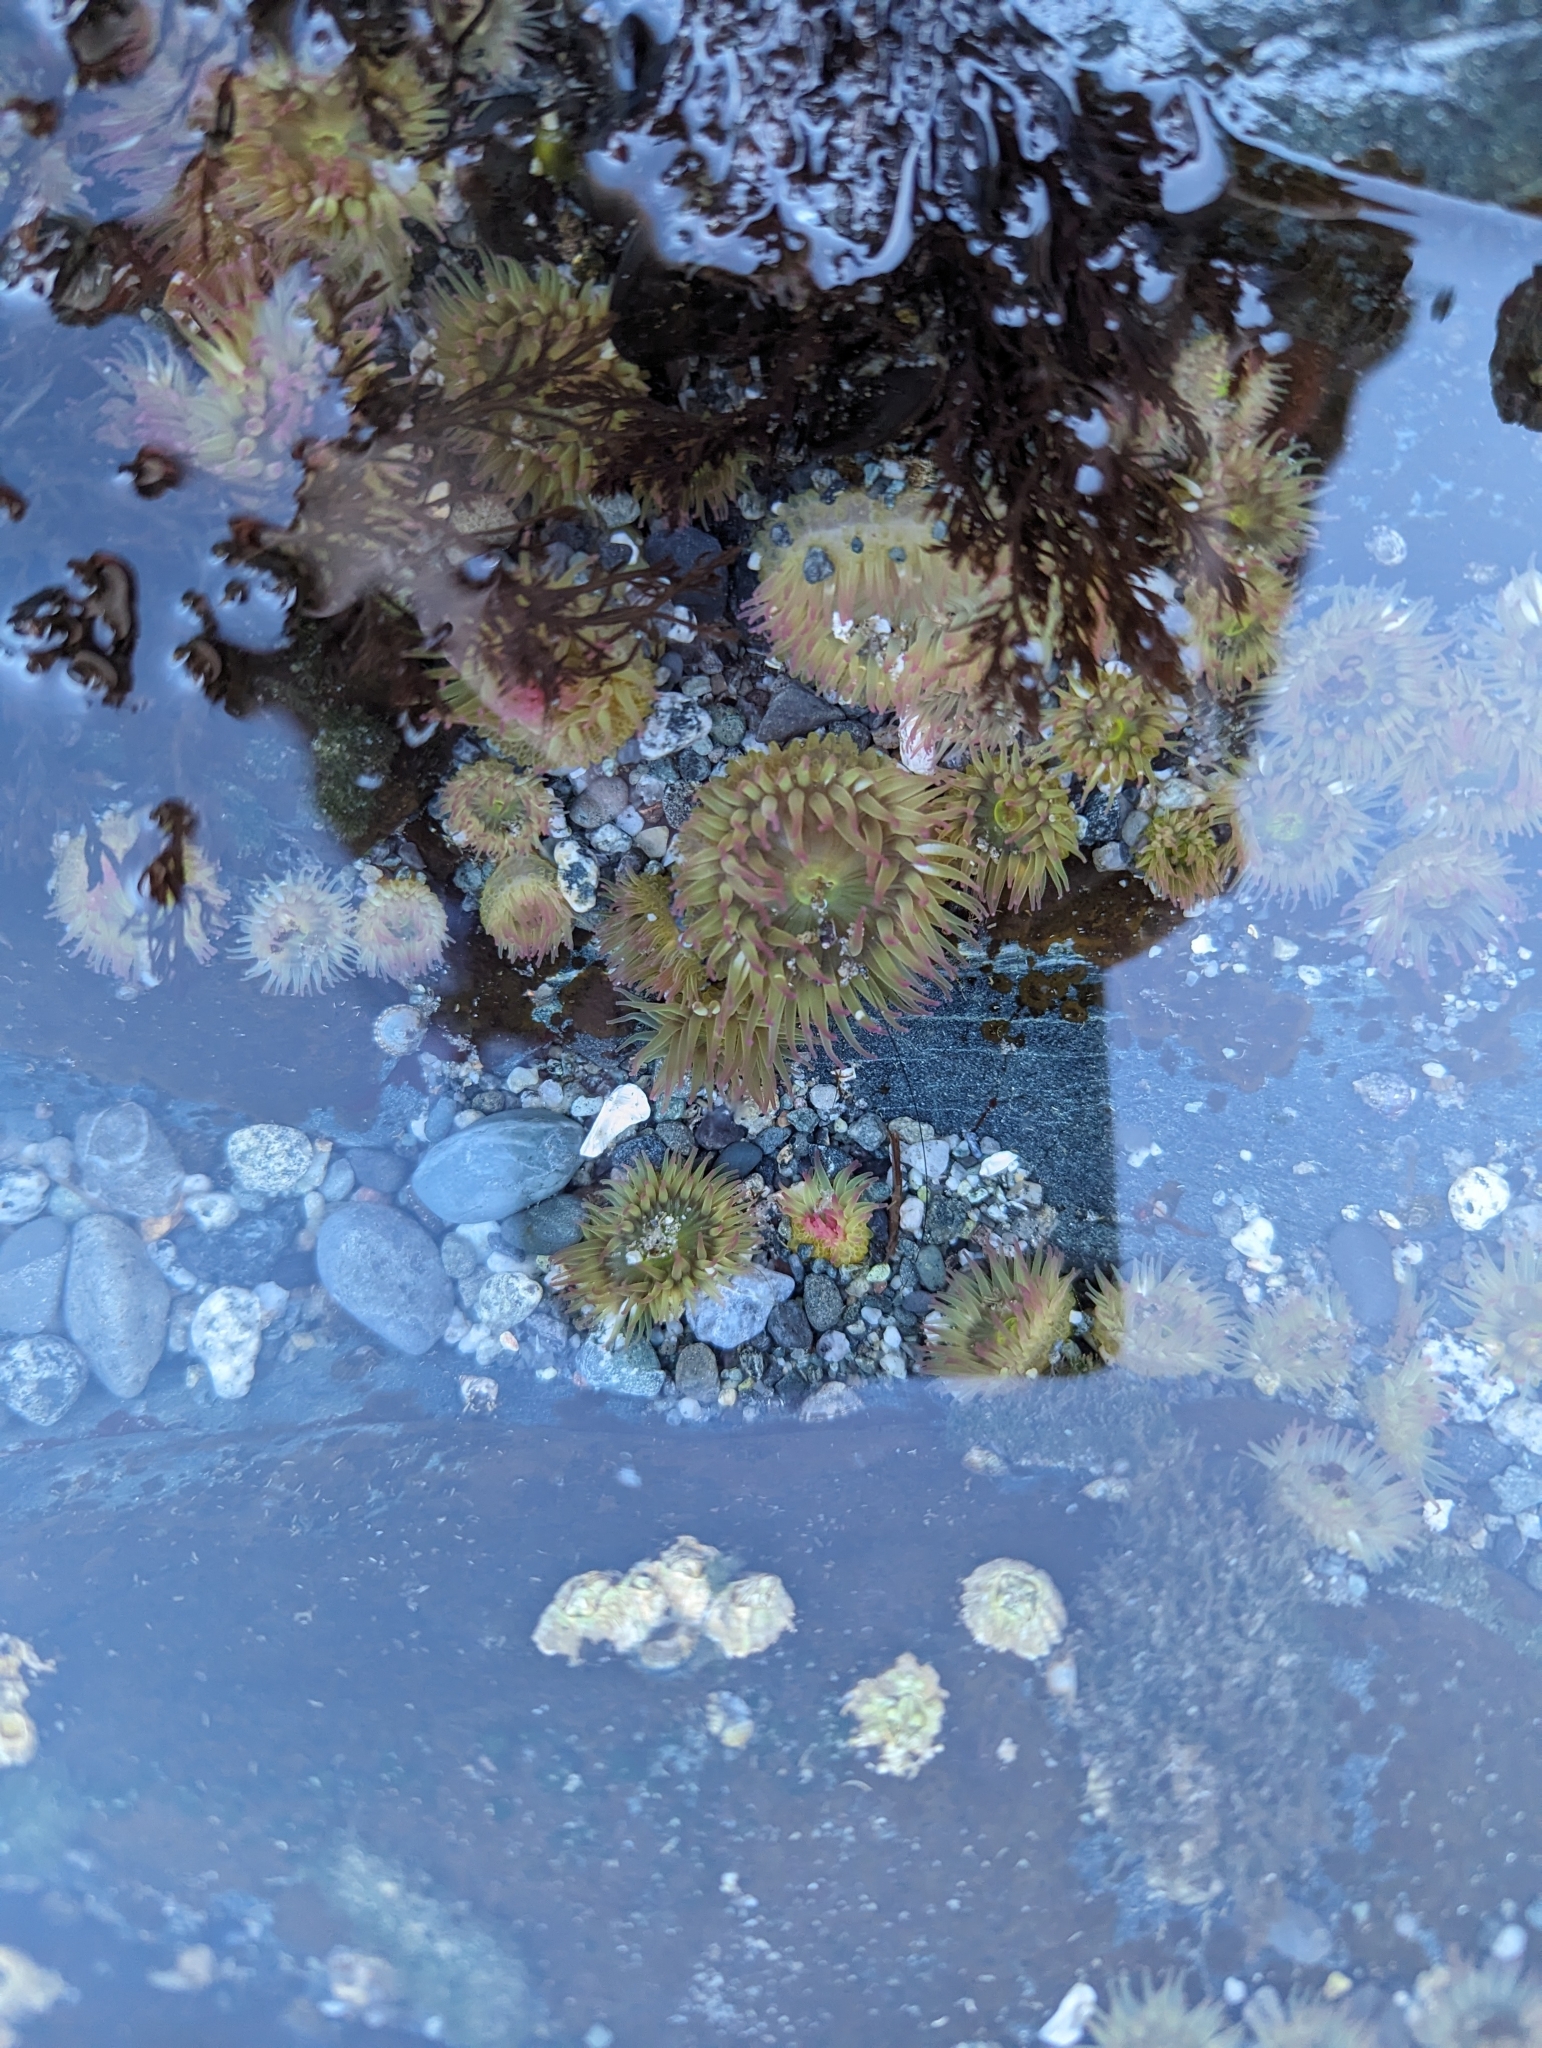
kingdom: Animalia
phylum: Cnidaria
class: Anthozoa
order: Actiniaria
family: Actiniidae
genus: Anthopleura
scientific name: Anthopleura elegantissima
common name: Clonal anemone
